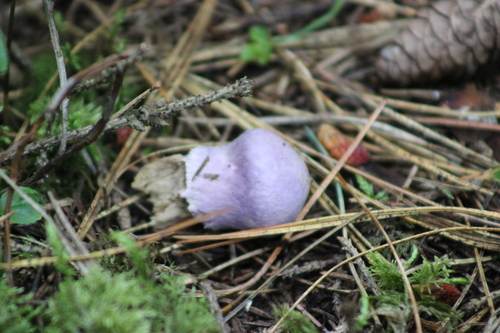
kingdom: Fungi
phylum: Basidiomycota
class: Agaricomycetes
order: Agaricales
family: Cortinariaceae
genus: Cortinarius
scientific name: Cortinarius camphoratus
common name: Goatcheese webcap
